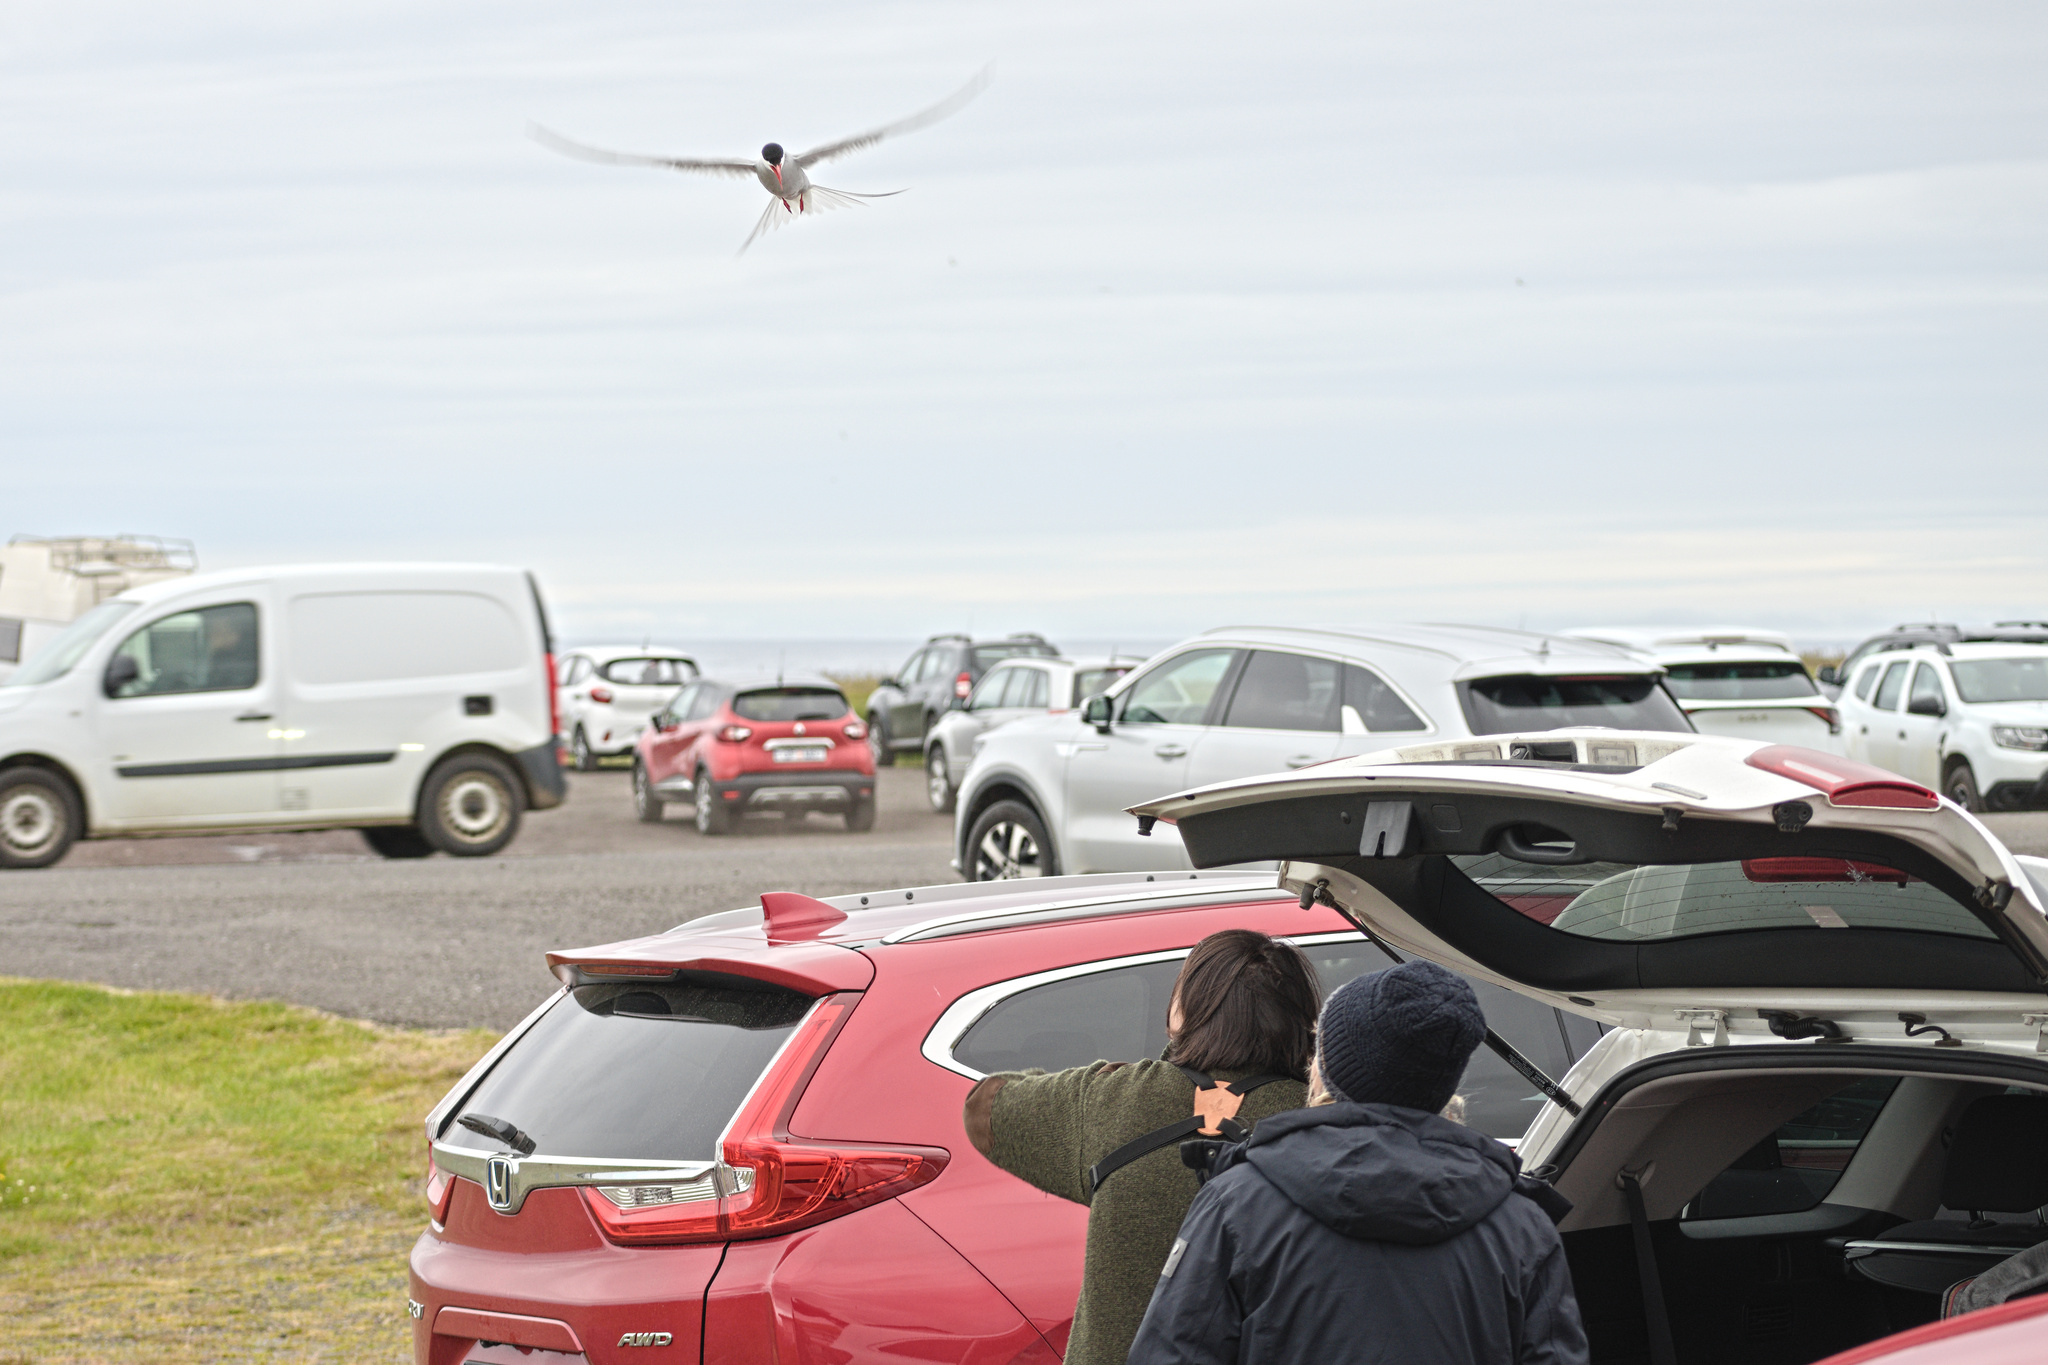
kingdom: Animalia
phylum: Chordata
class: Aves
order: Charadriiformes
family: Laridae
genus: Sterna
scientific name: Sterna paradisaea
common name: Arctic tern
